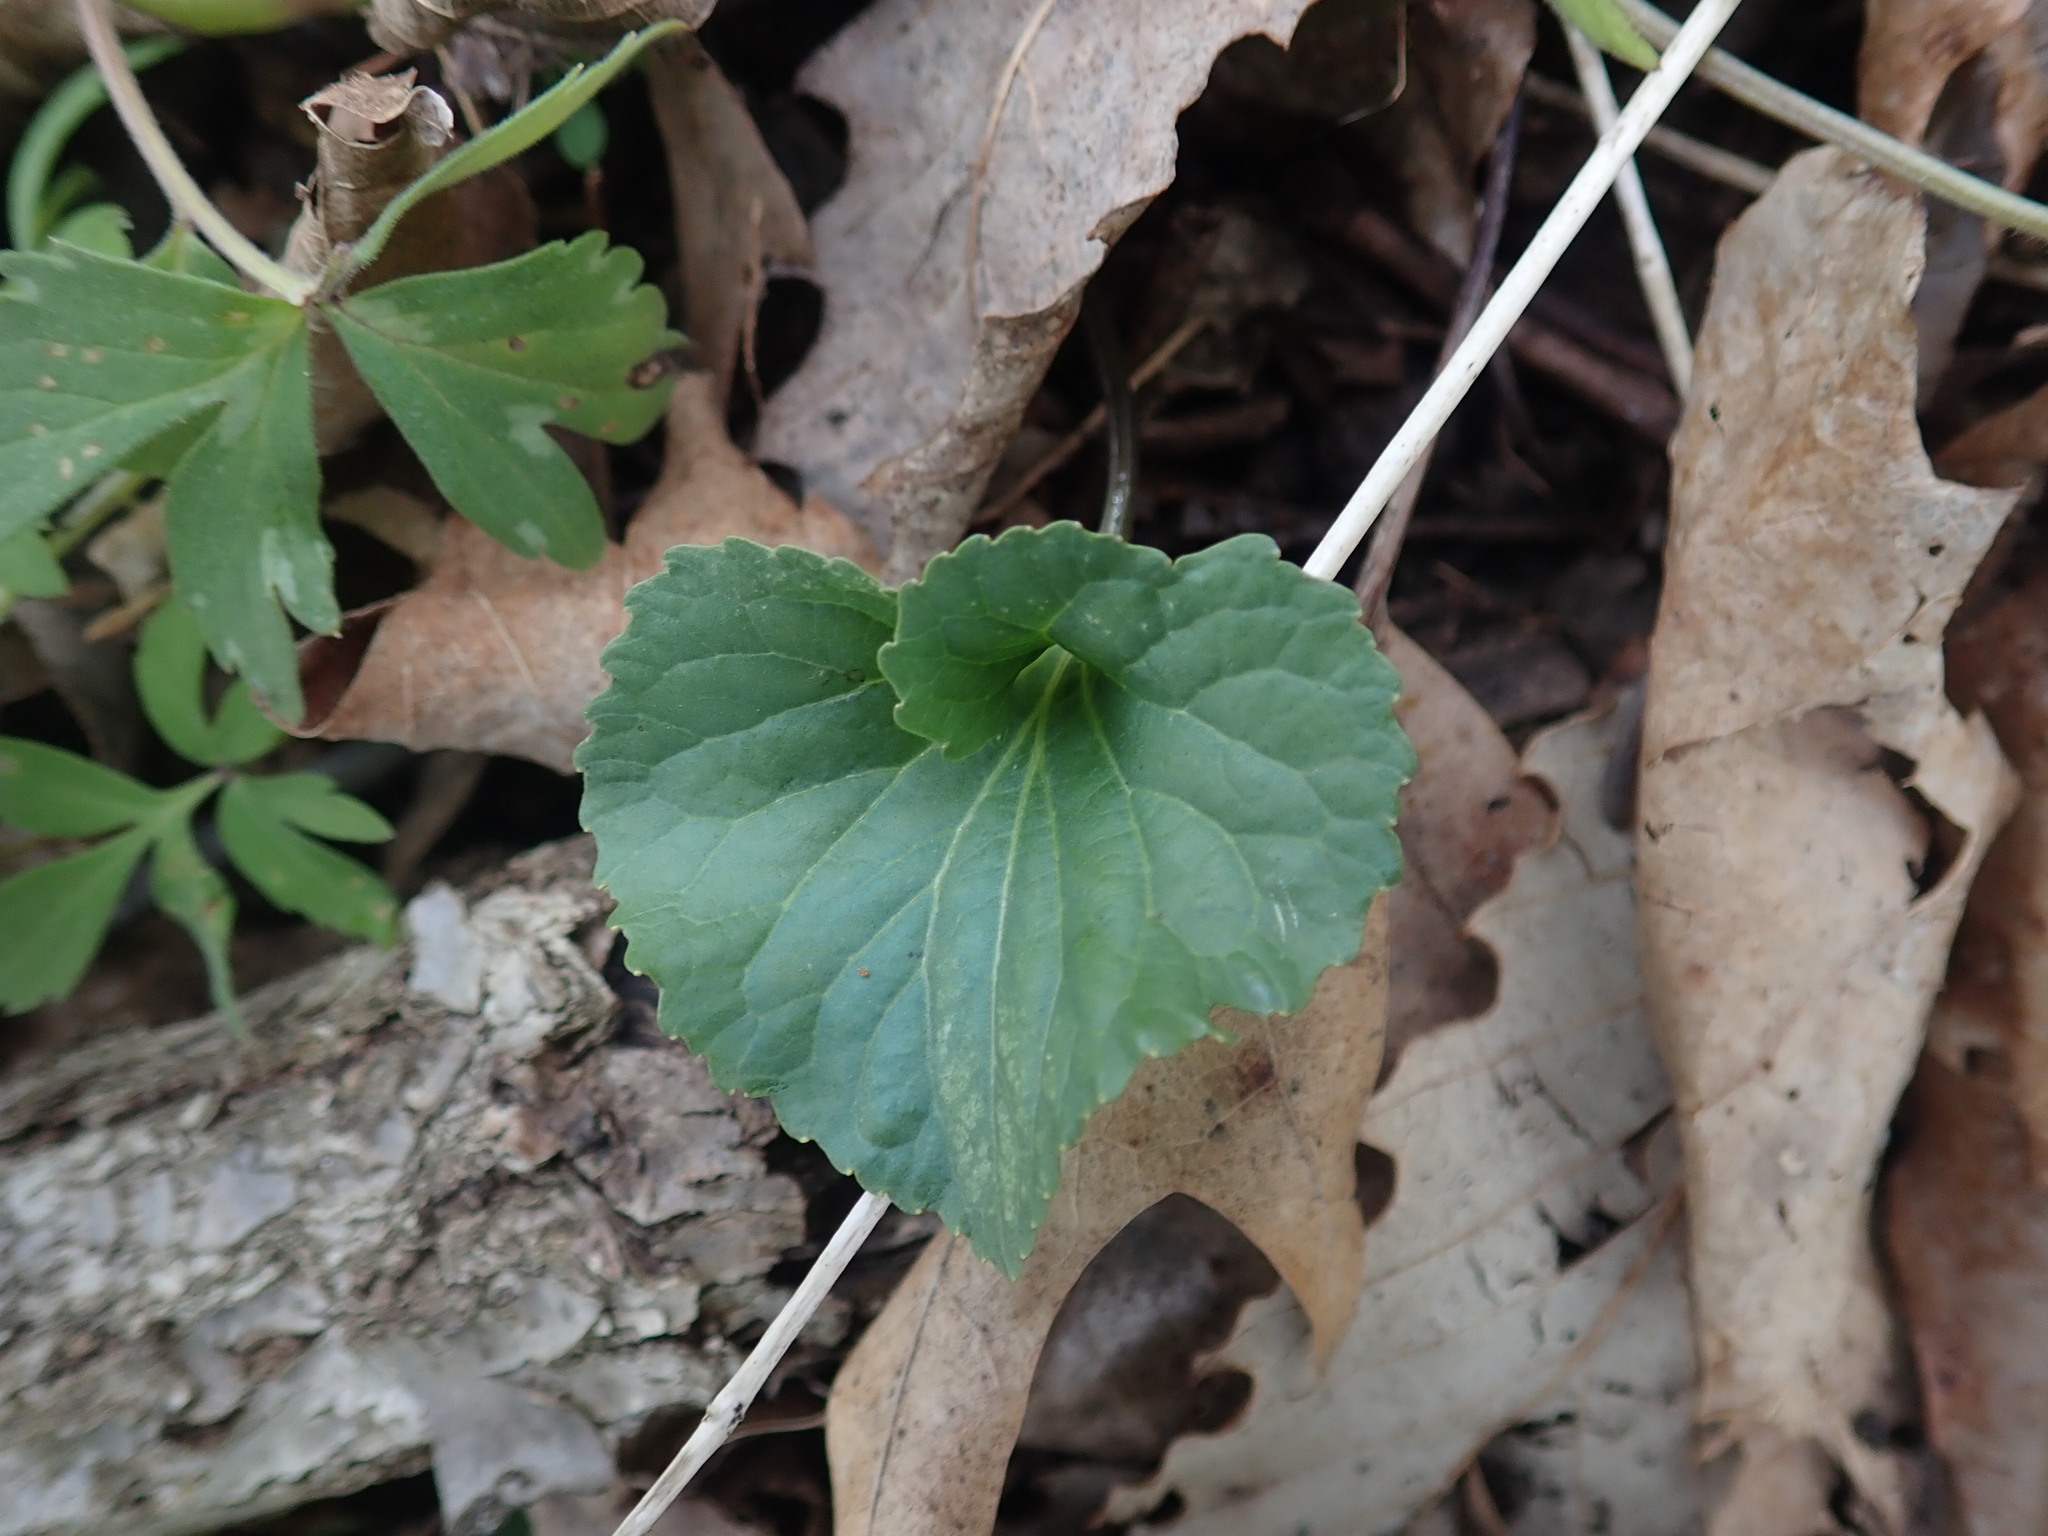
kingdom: Plantae
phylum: Tracheophyta
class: Magnoliopsida
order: Malpighiales
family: Violaceae
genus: Viola
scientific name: Viola eriocarpa
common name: Smooth yellow violet
